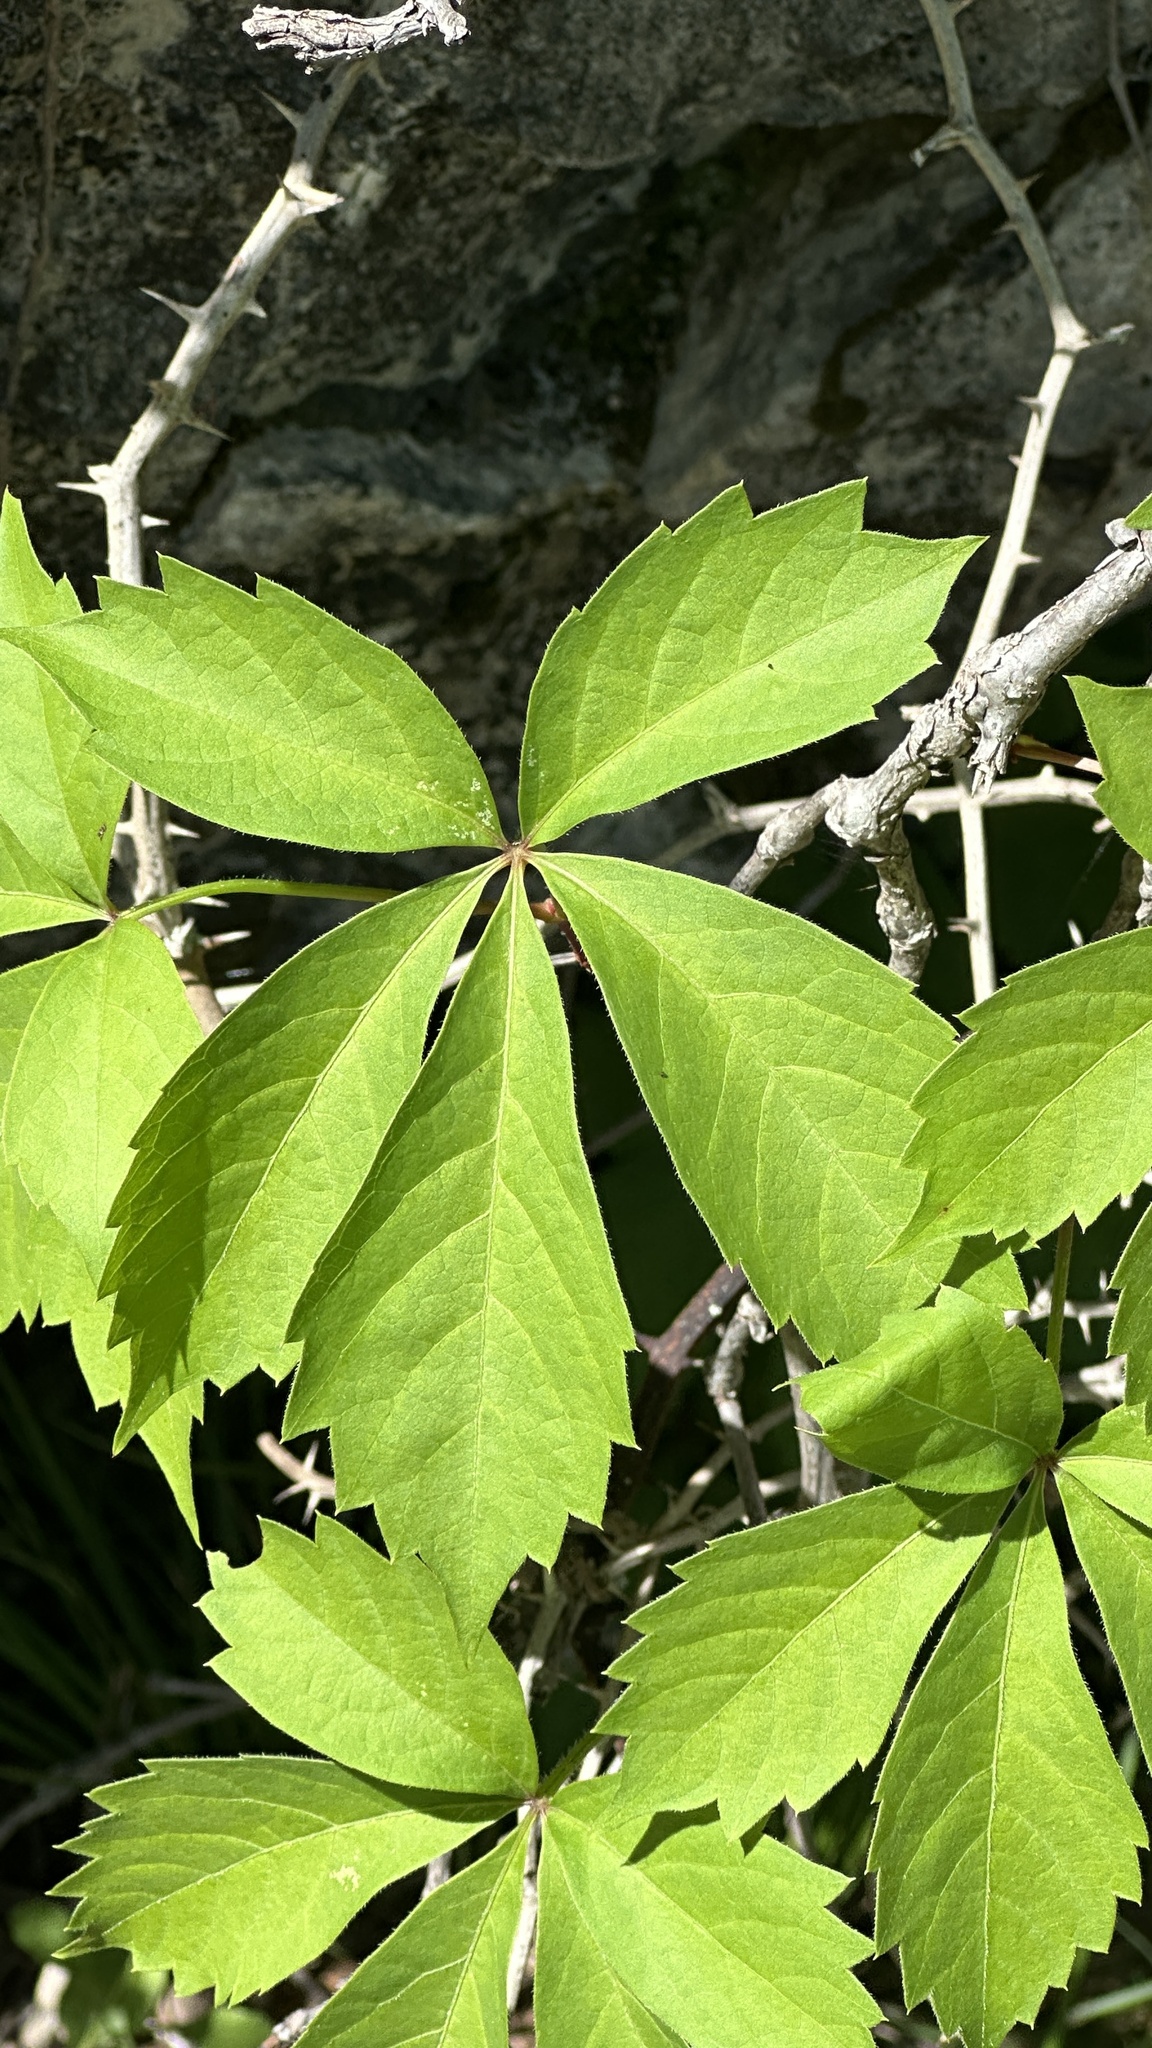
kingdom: Plantae
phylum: Tracheophyta
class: Magnoliopsida
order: Vitales
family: Vitaceae
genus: Parthenocissus
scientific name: Parthenocissus quinquefolia
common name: Virginia-creeper
